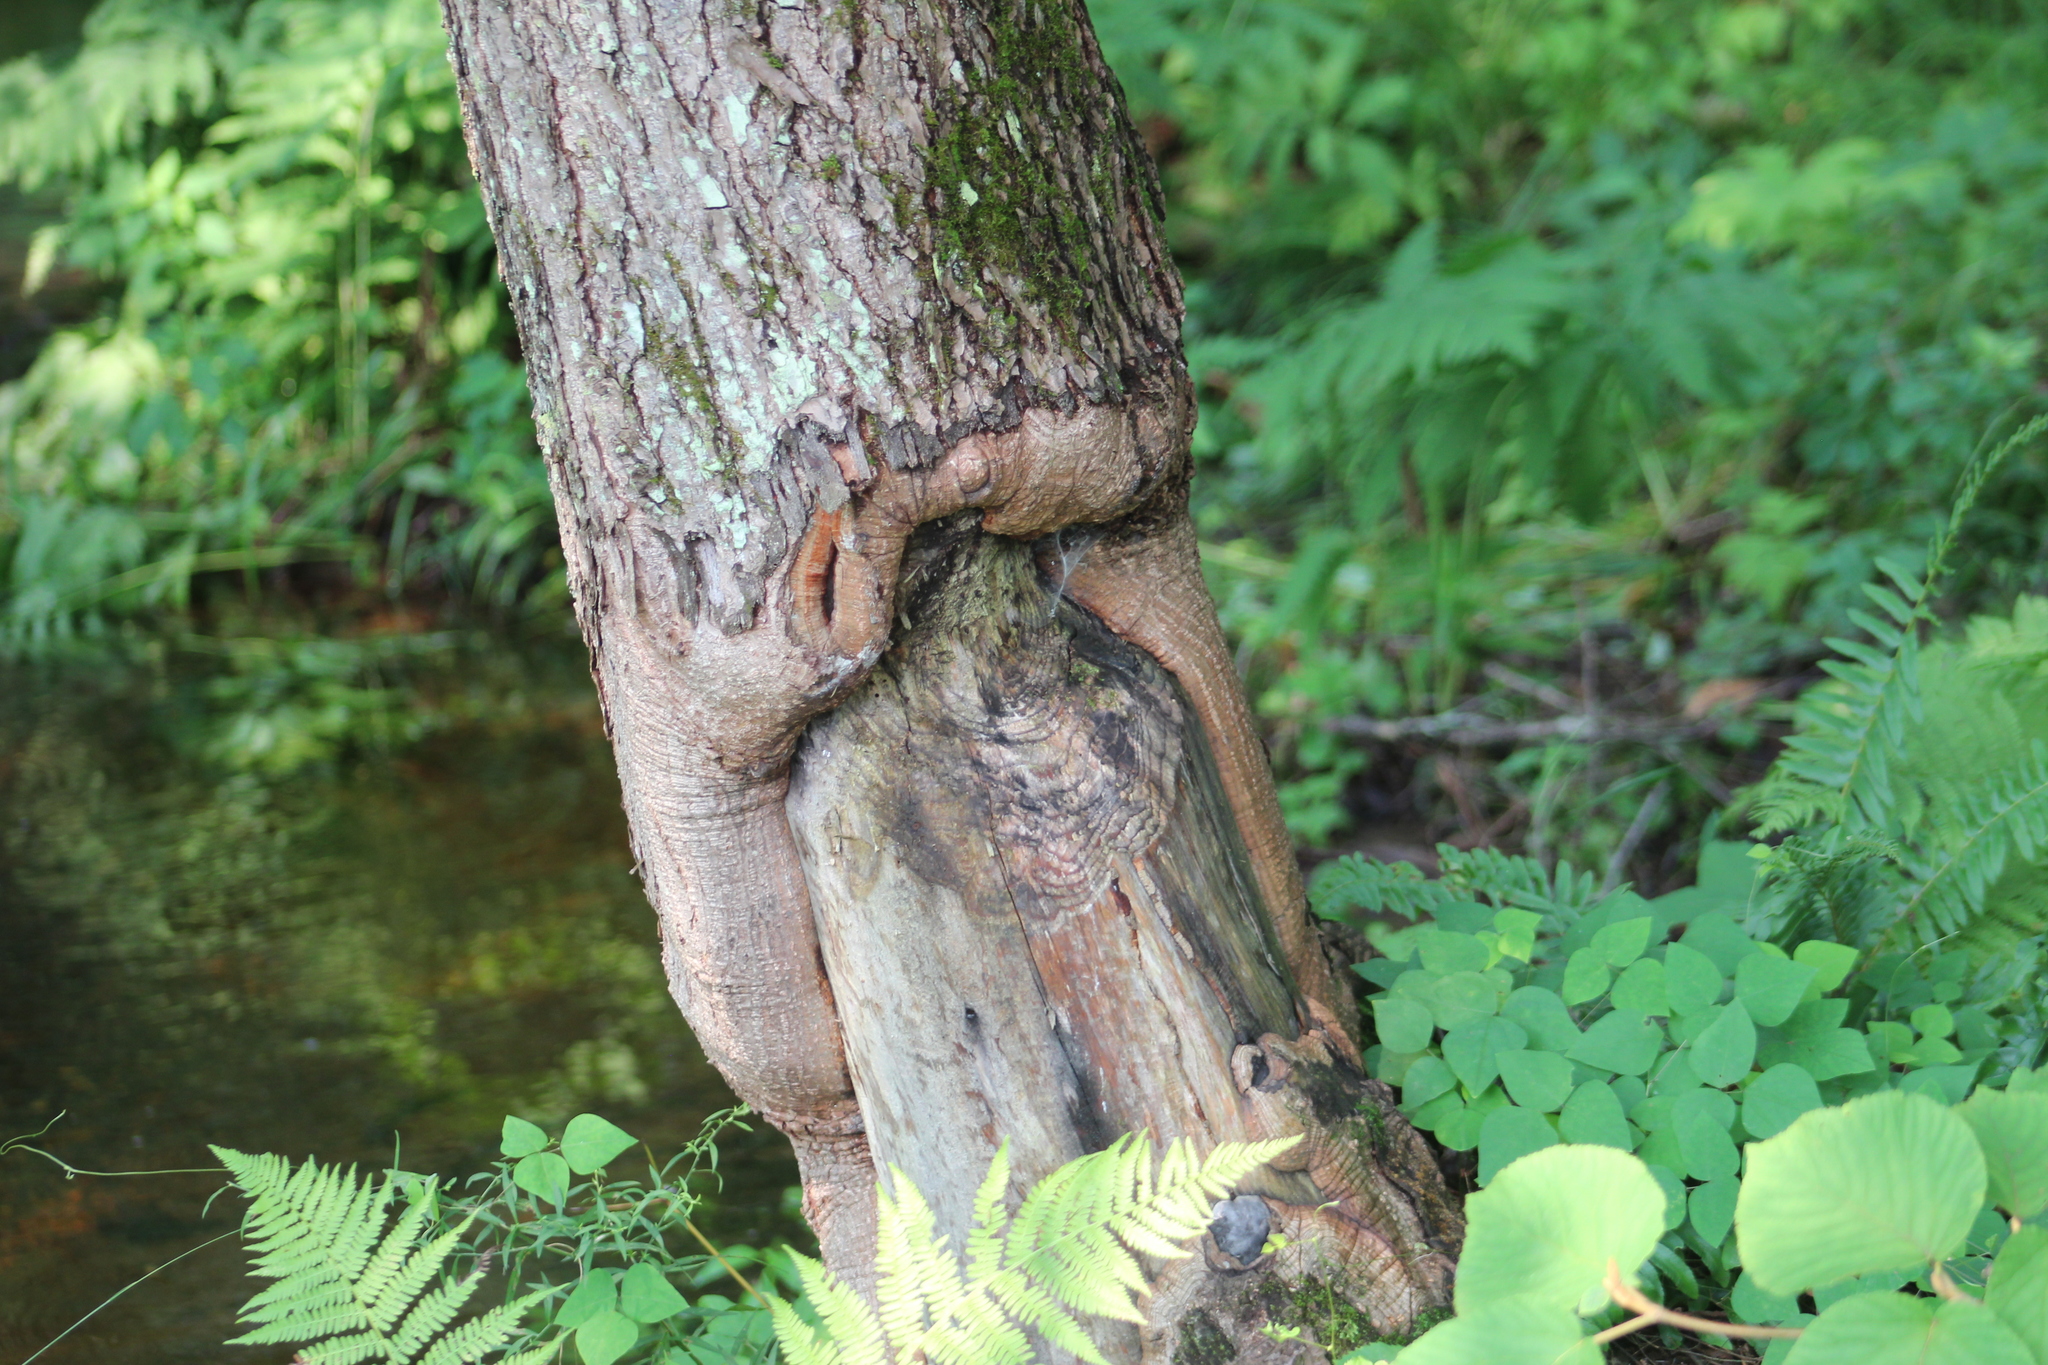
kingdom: Plantae
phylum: Tracheophyta
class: Pinopsida
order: Pinales
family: Pinaceae
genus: Tsuga
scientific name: Tsuga canadensis
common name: Eastern hemlock
